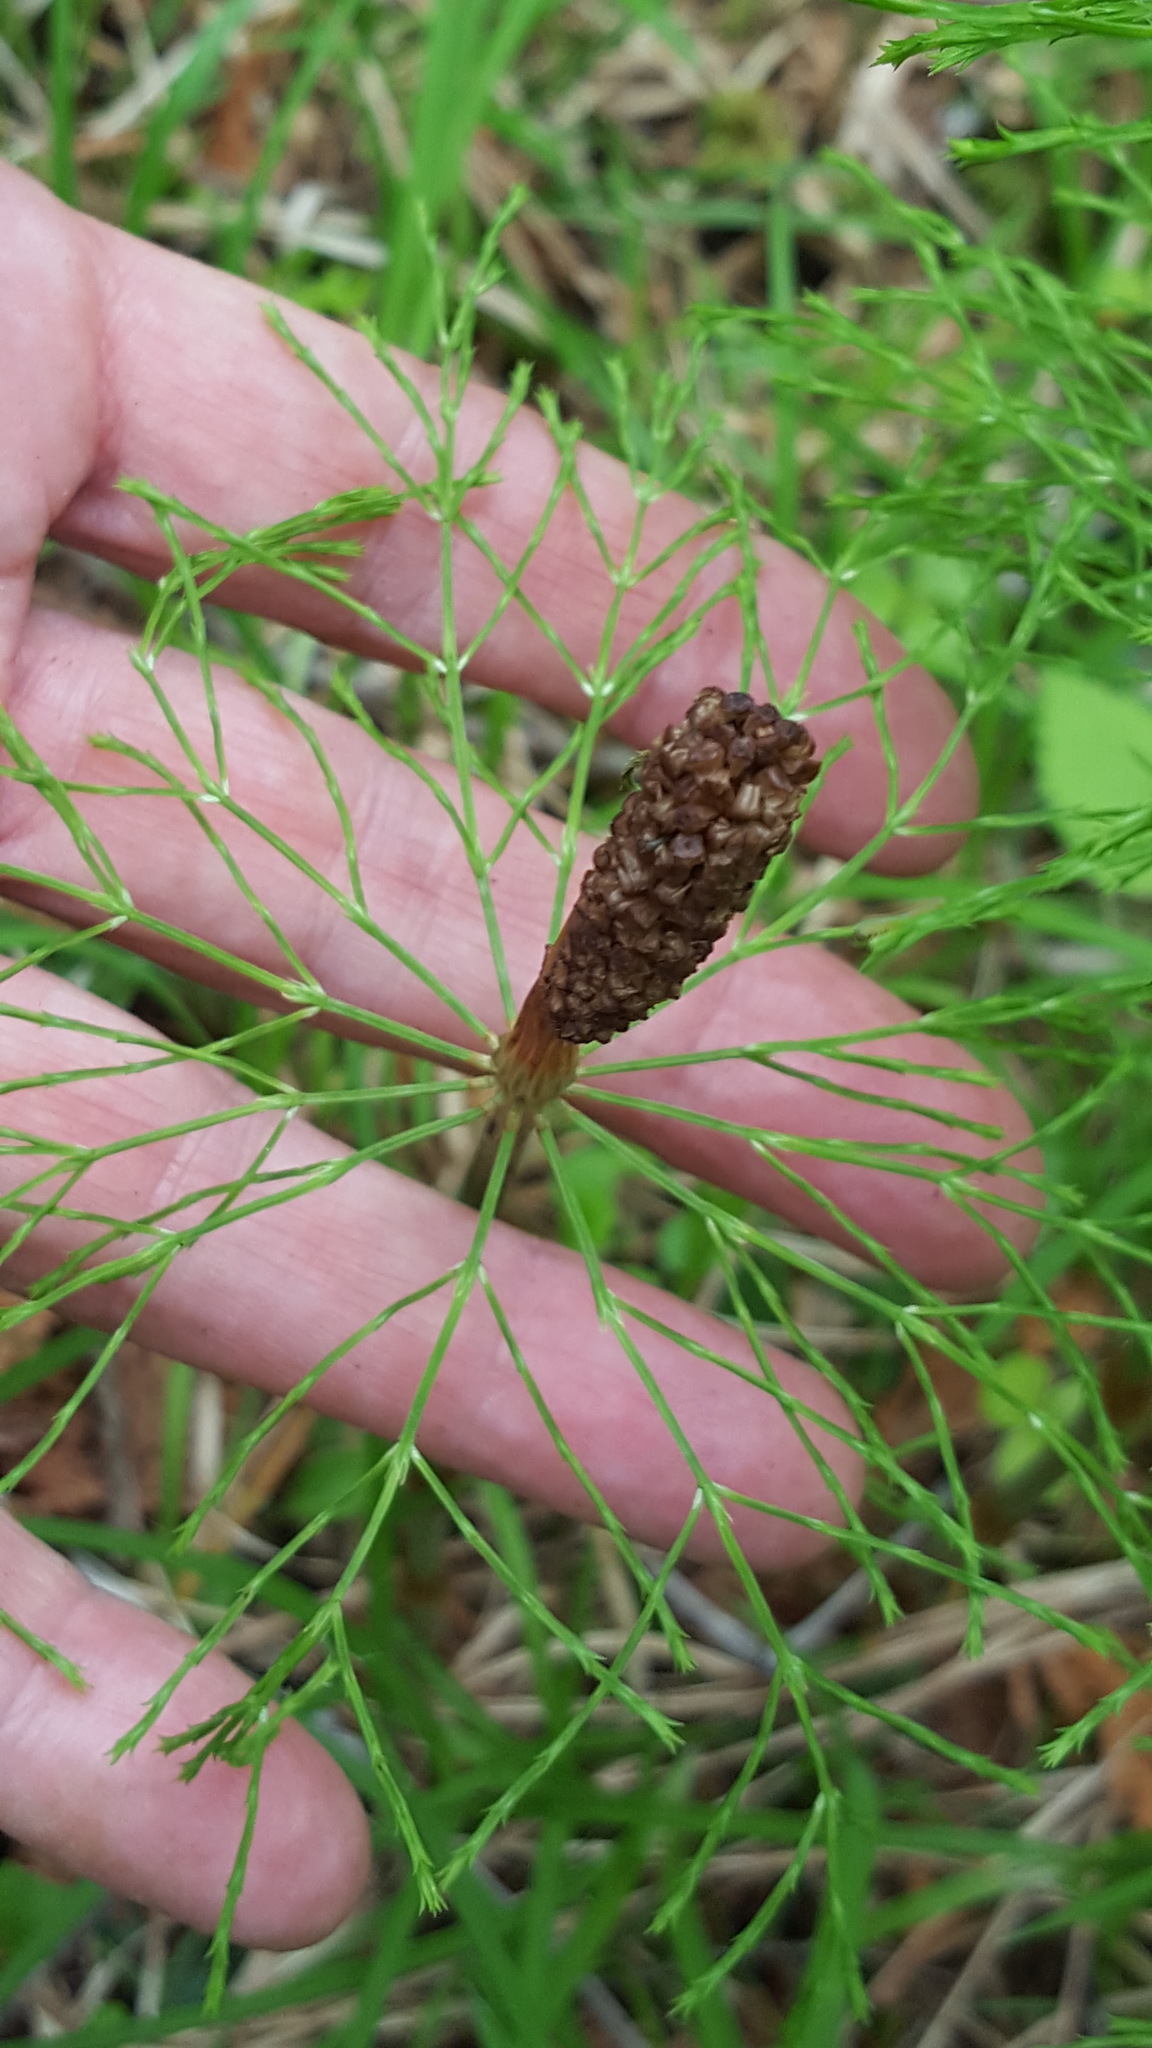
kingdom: Plantae
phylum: Tracheophyta
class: Polypodiopsida
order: Equisetales
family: Equisetaceae
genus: Equisetum
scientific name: Equisetum sylvaticum
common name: Wood horsetail
